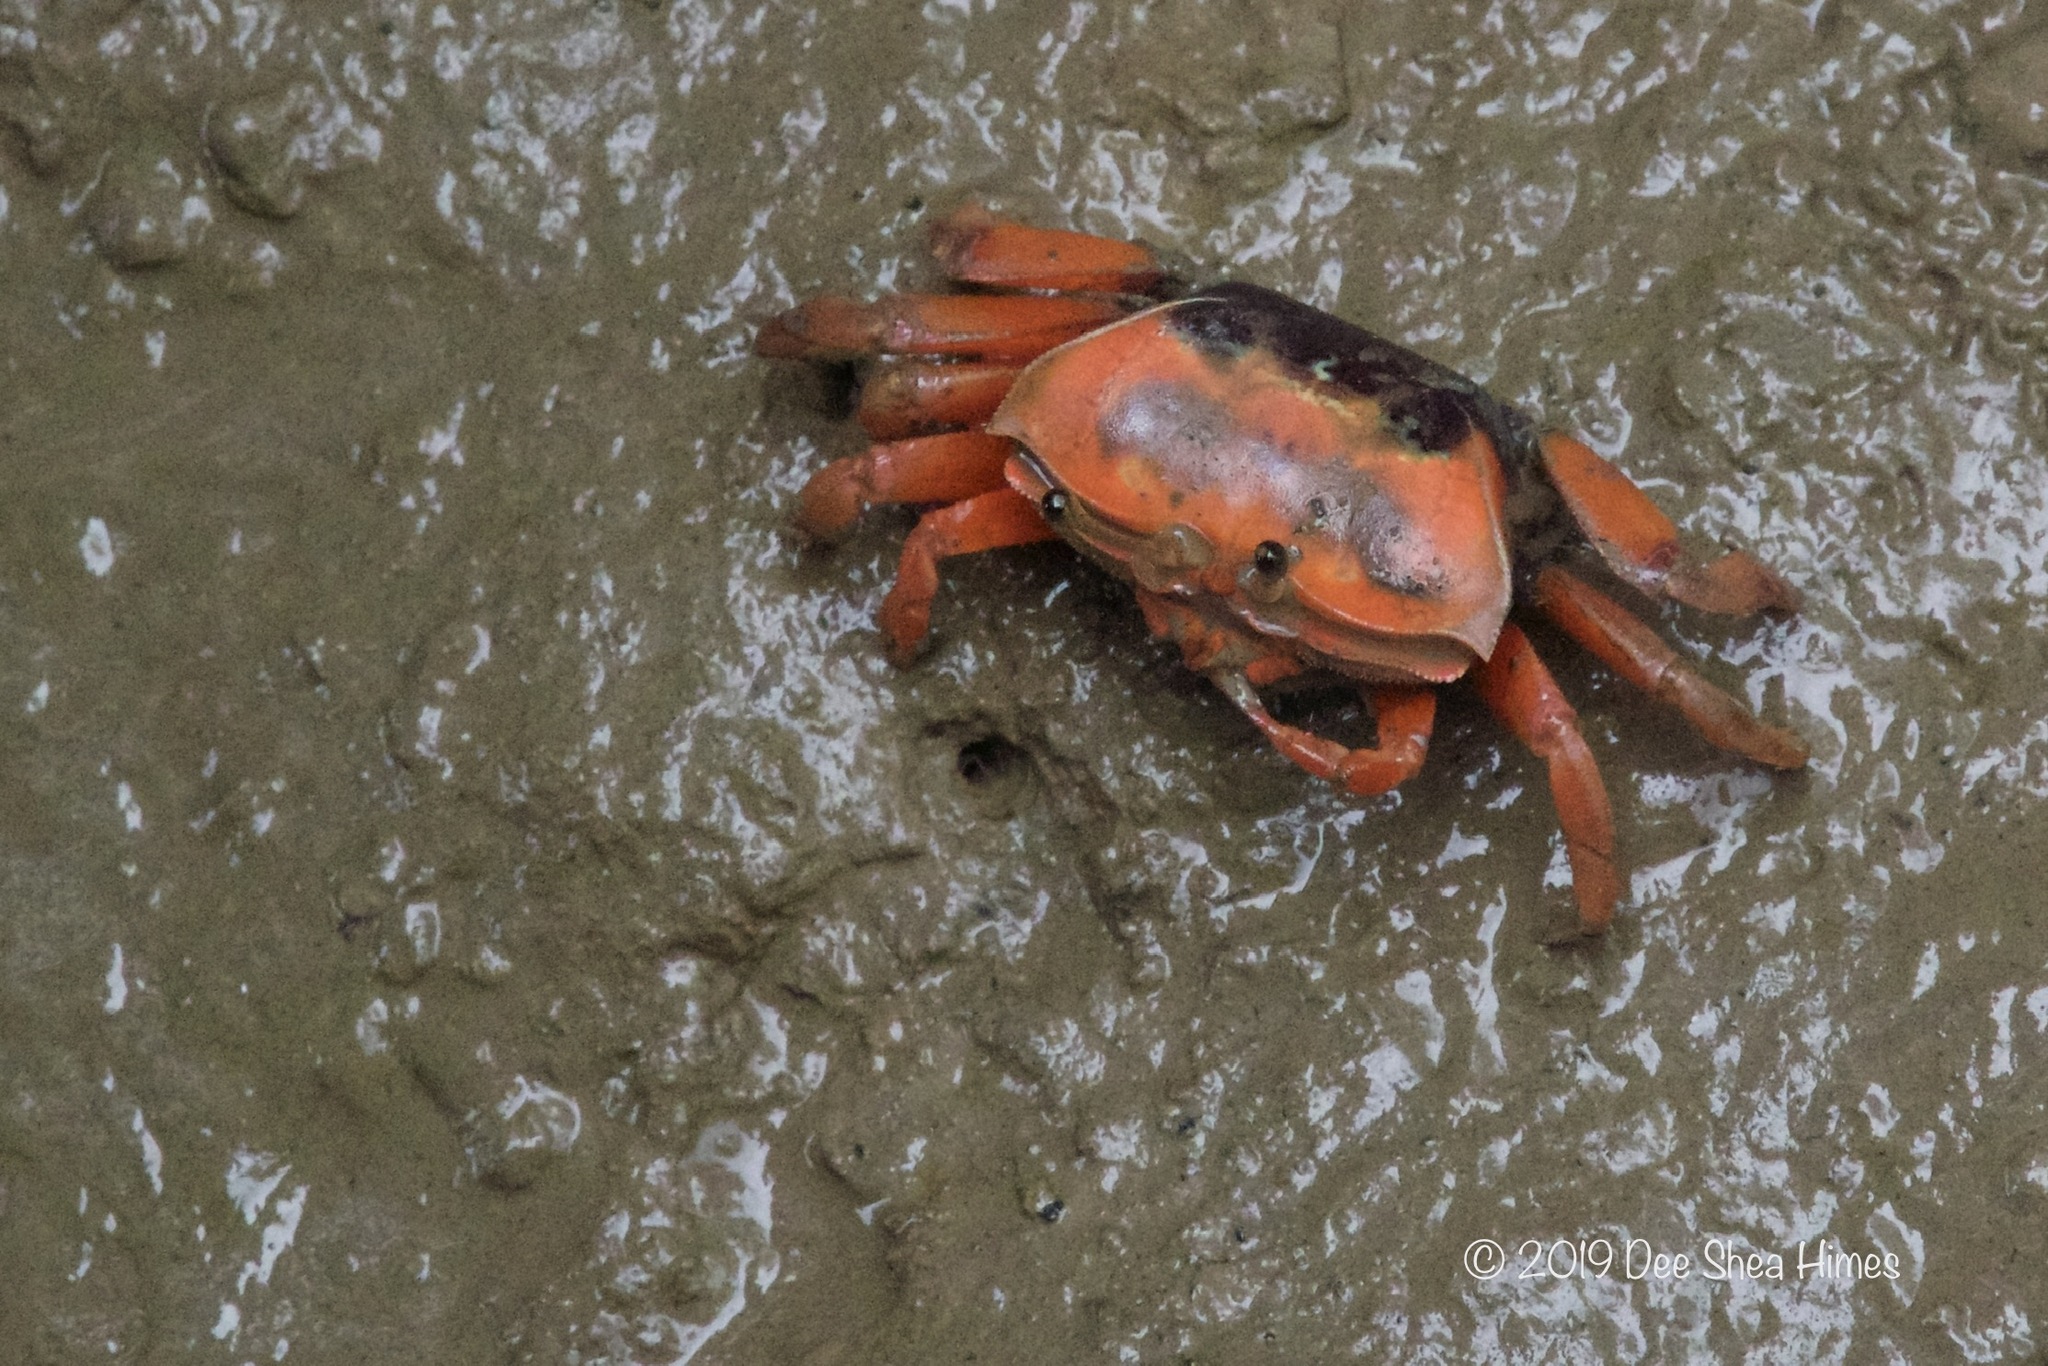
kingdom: Animalia
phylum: Arthropoda
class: Malacostraca
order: Decapoda
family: Ocypodidae
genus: Tubuca
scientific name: Tubuca arcuata
